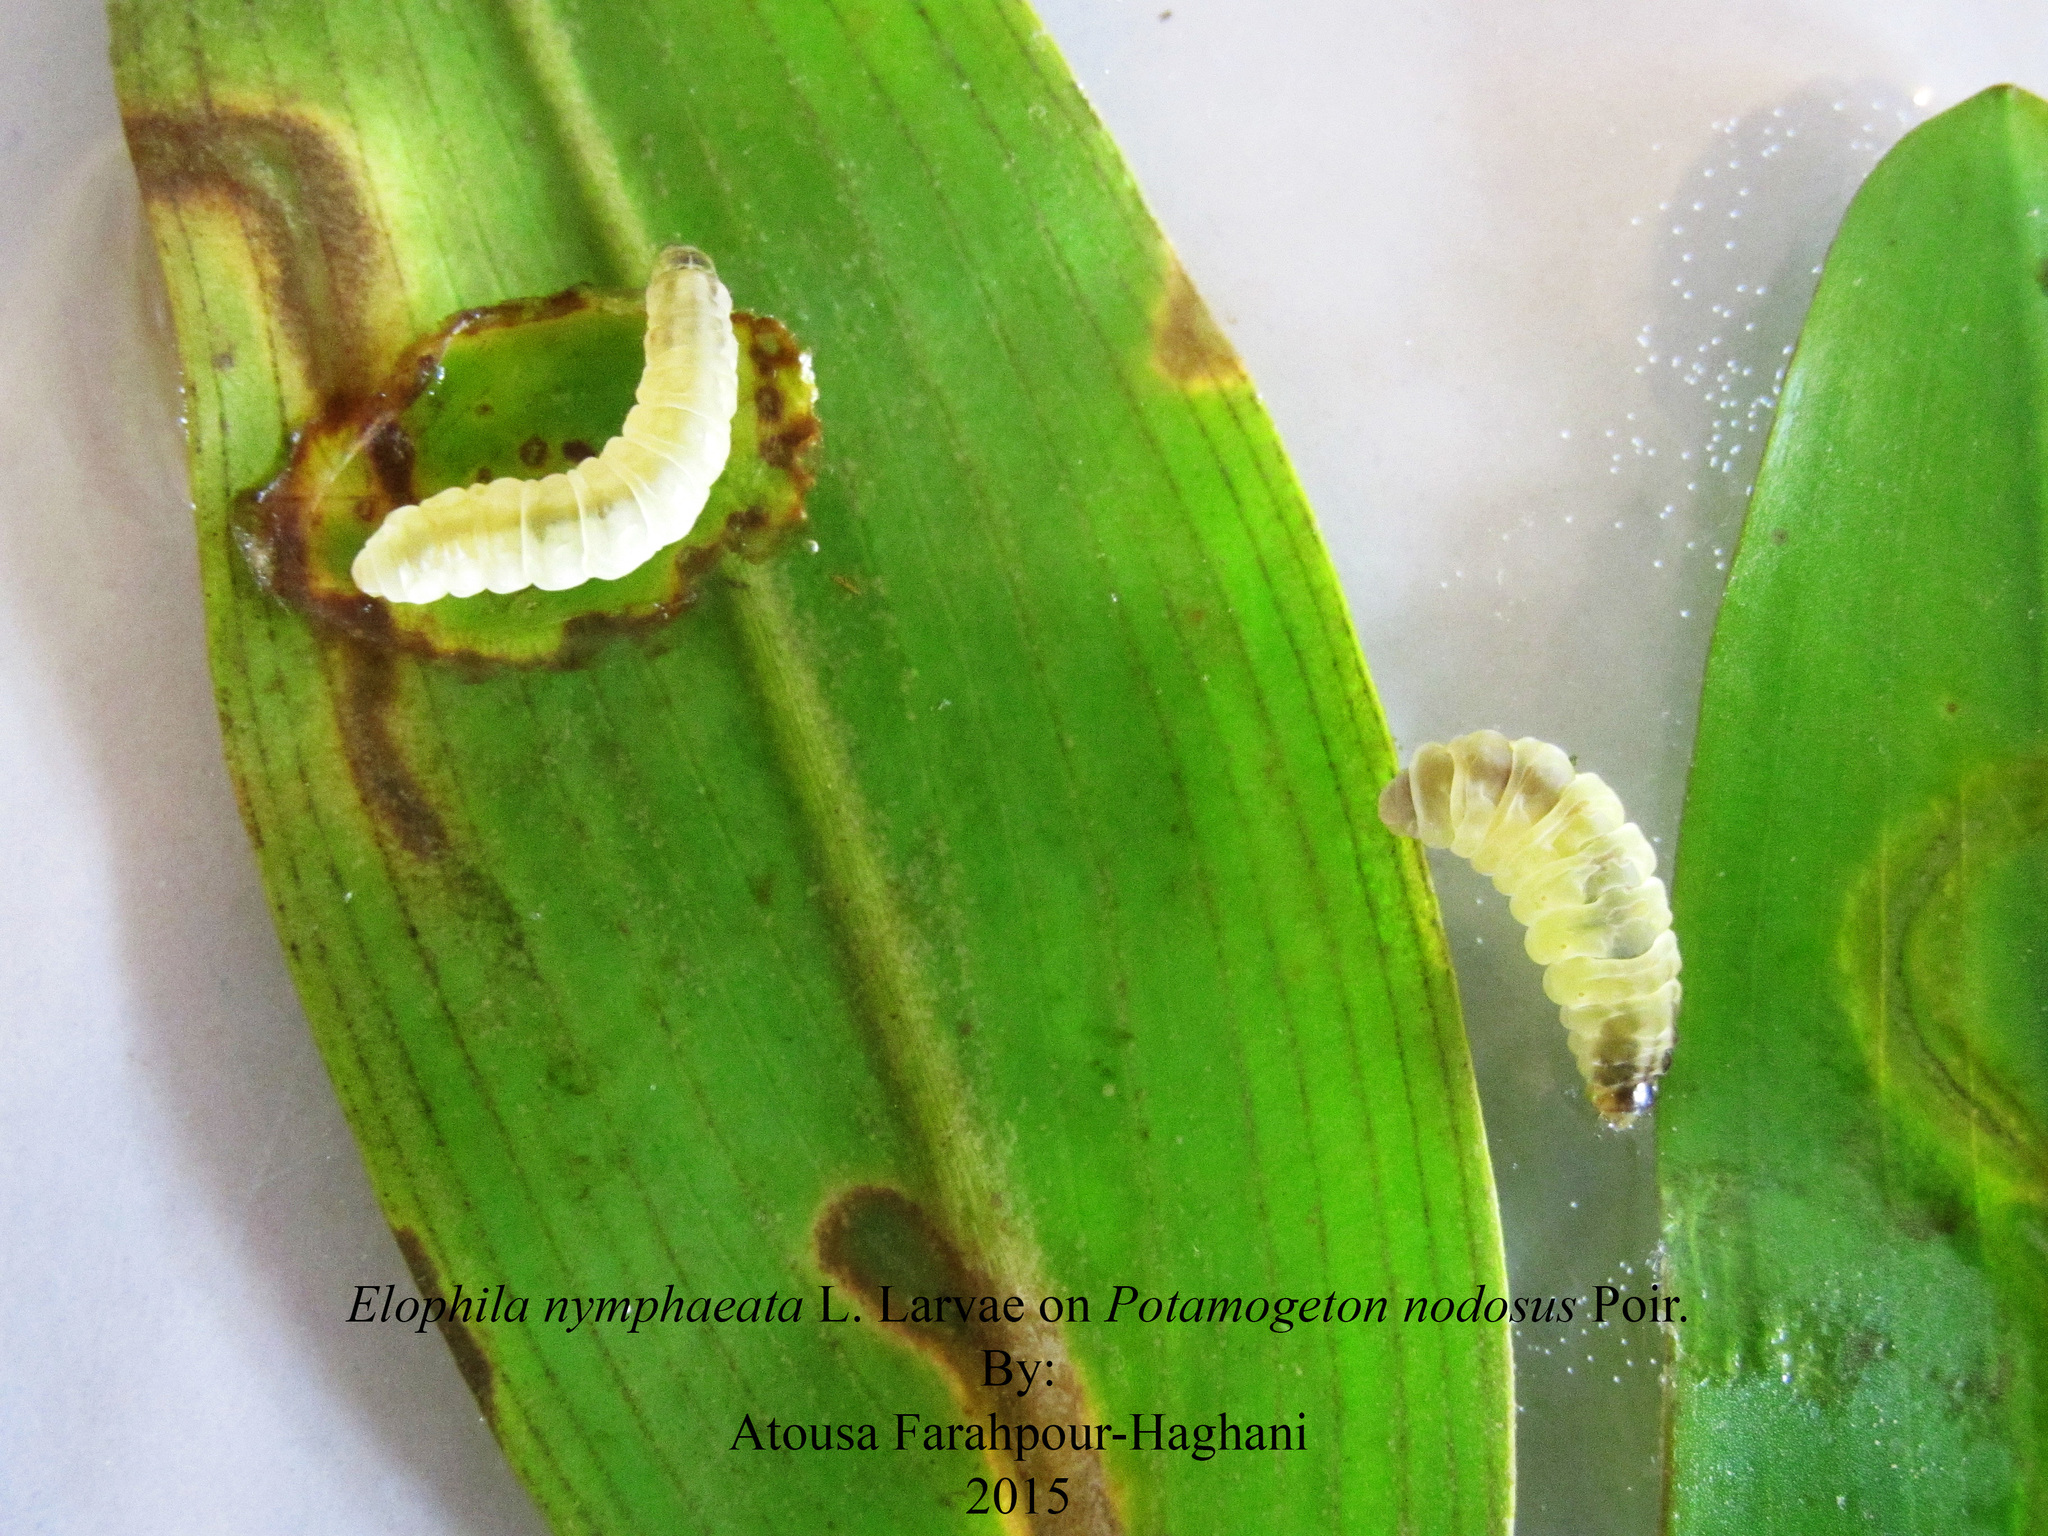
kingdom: Animalia
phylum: Arthropoda
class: Insecta
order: Lepidoptera
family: Crambidae
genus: Elophila
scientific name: Elophila nymphaeata
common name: Brown china-mark
